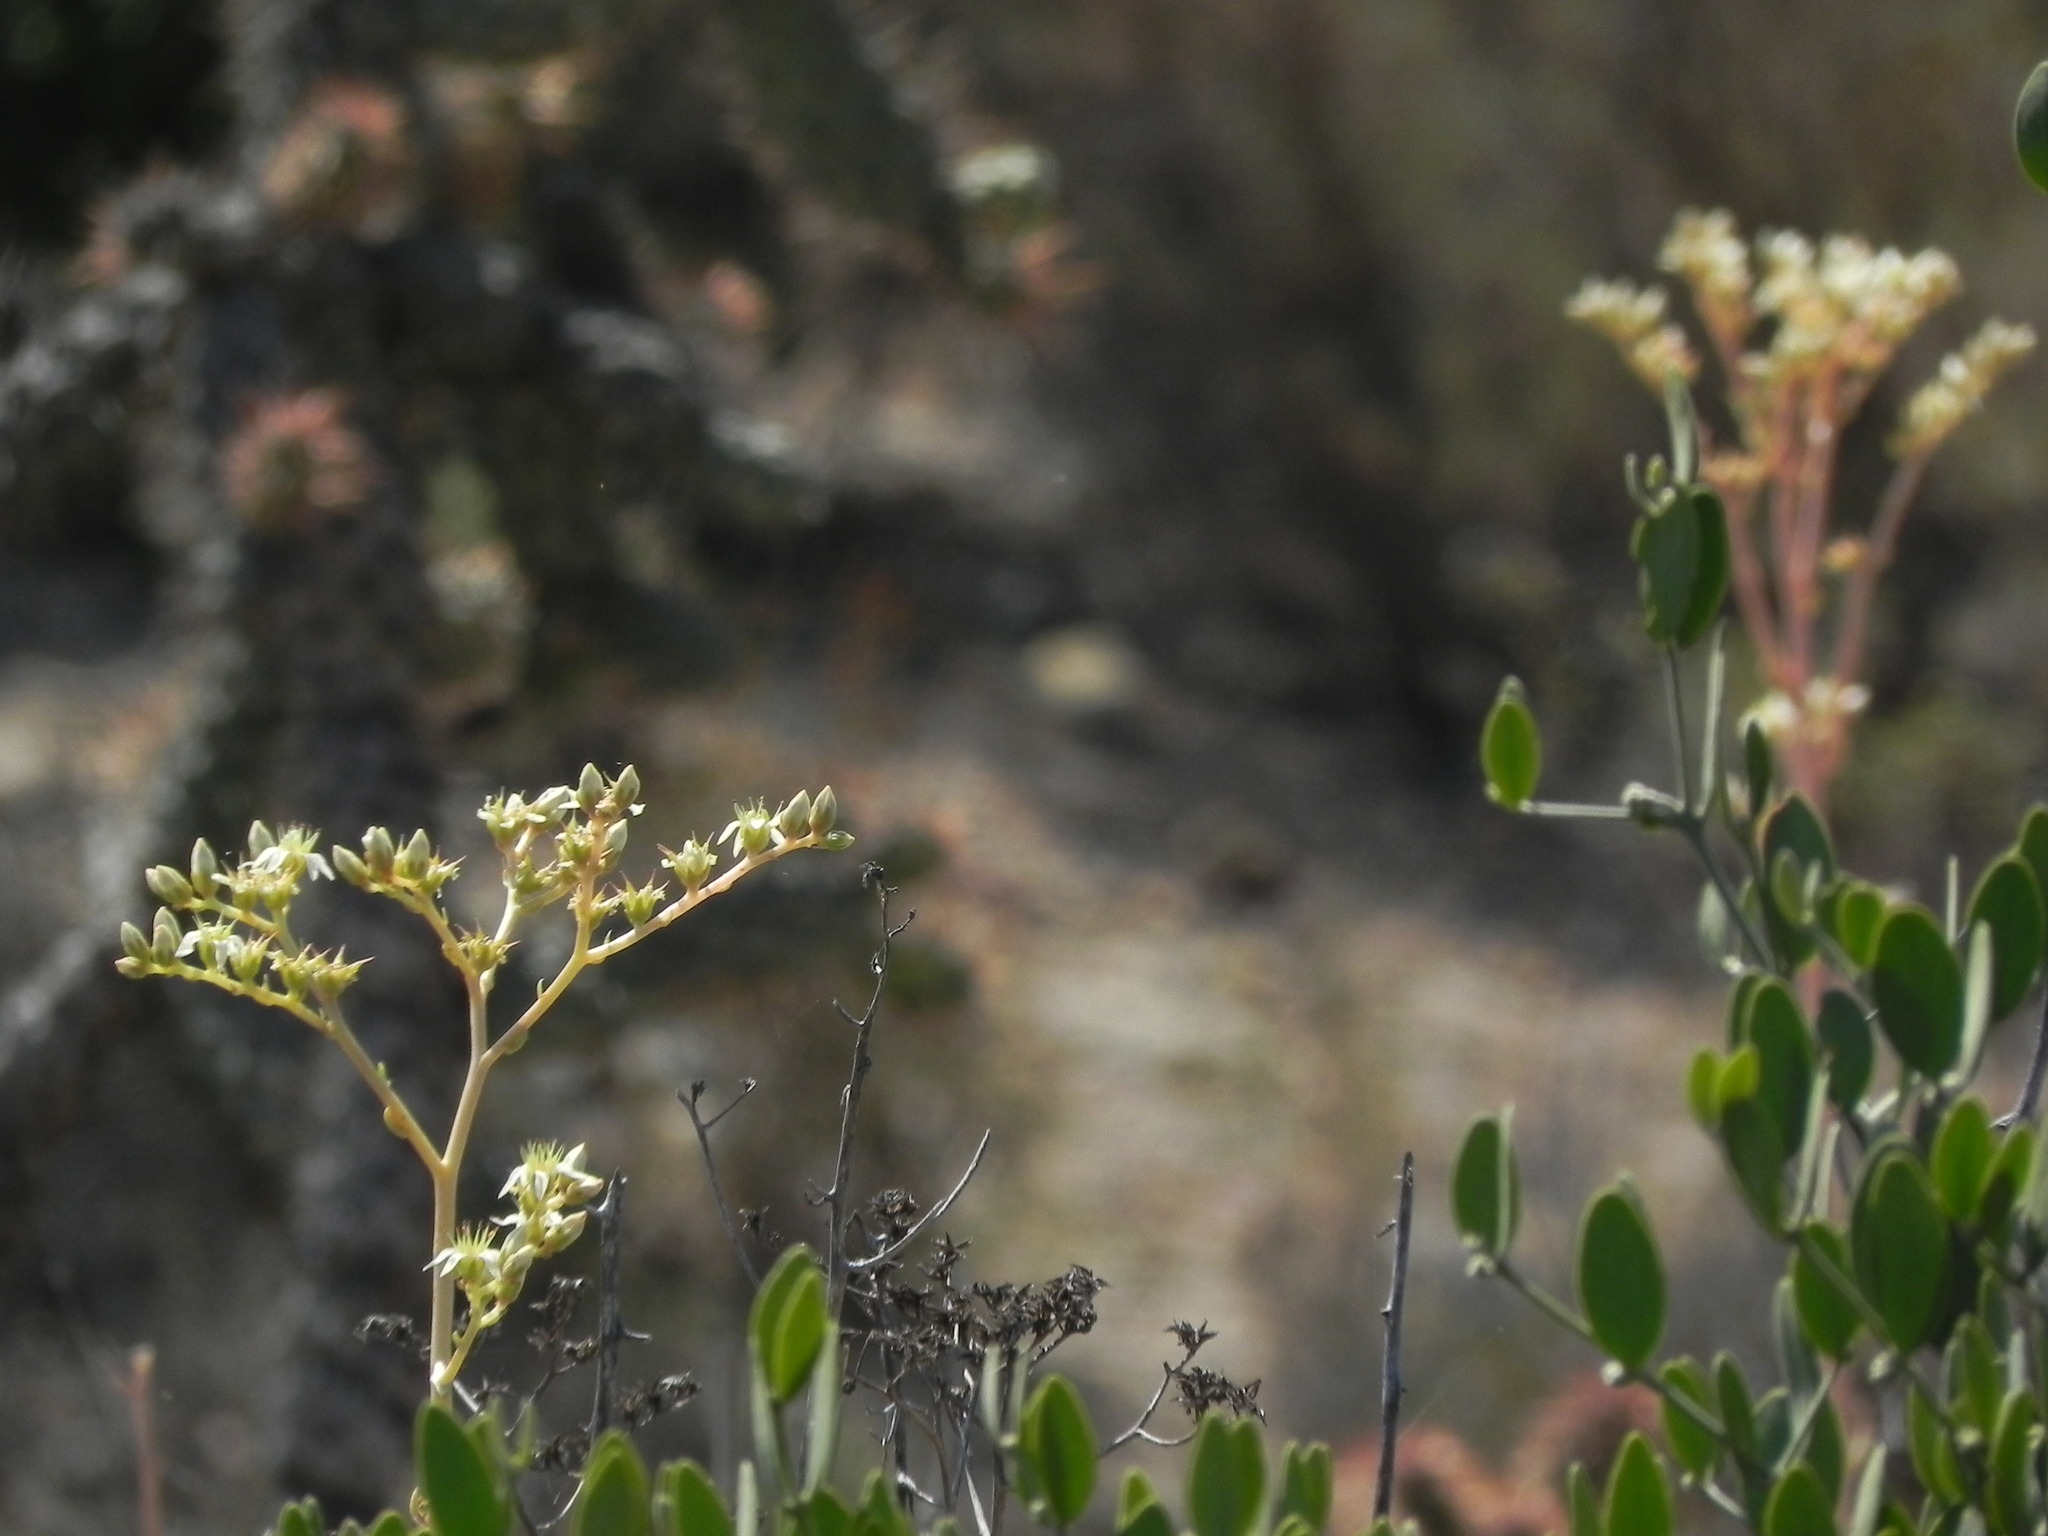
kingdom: Plantae
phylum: Tracheophyta
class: Magnoliopsida
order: Saxifragales
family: Crassulaceae
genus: Dudleya
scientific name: Dudleya edulis
